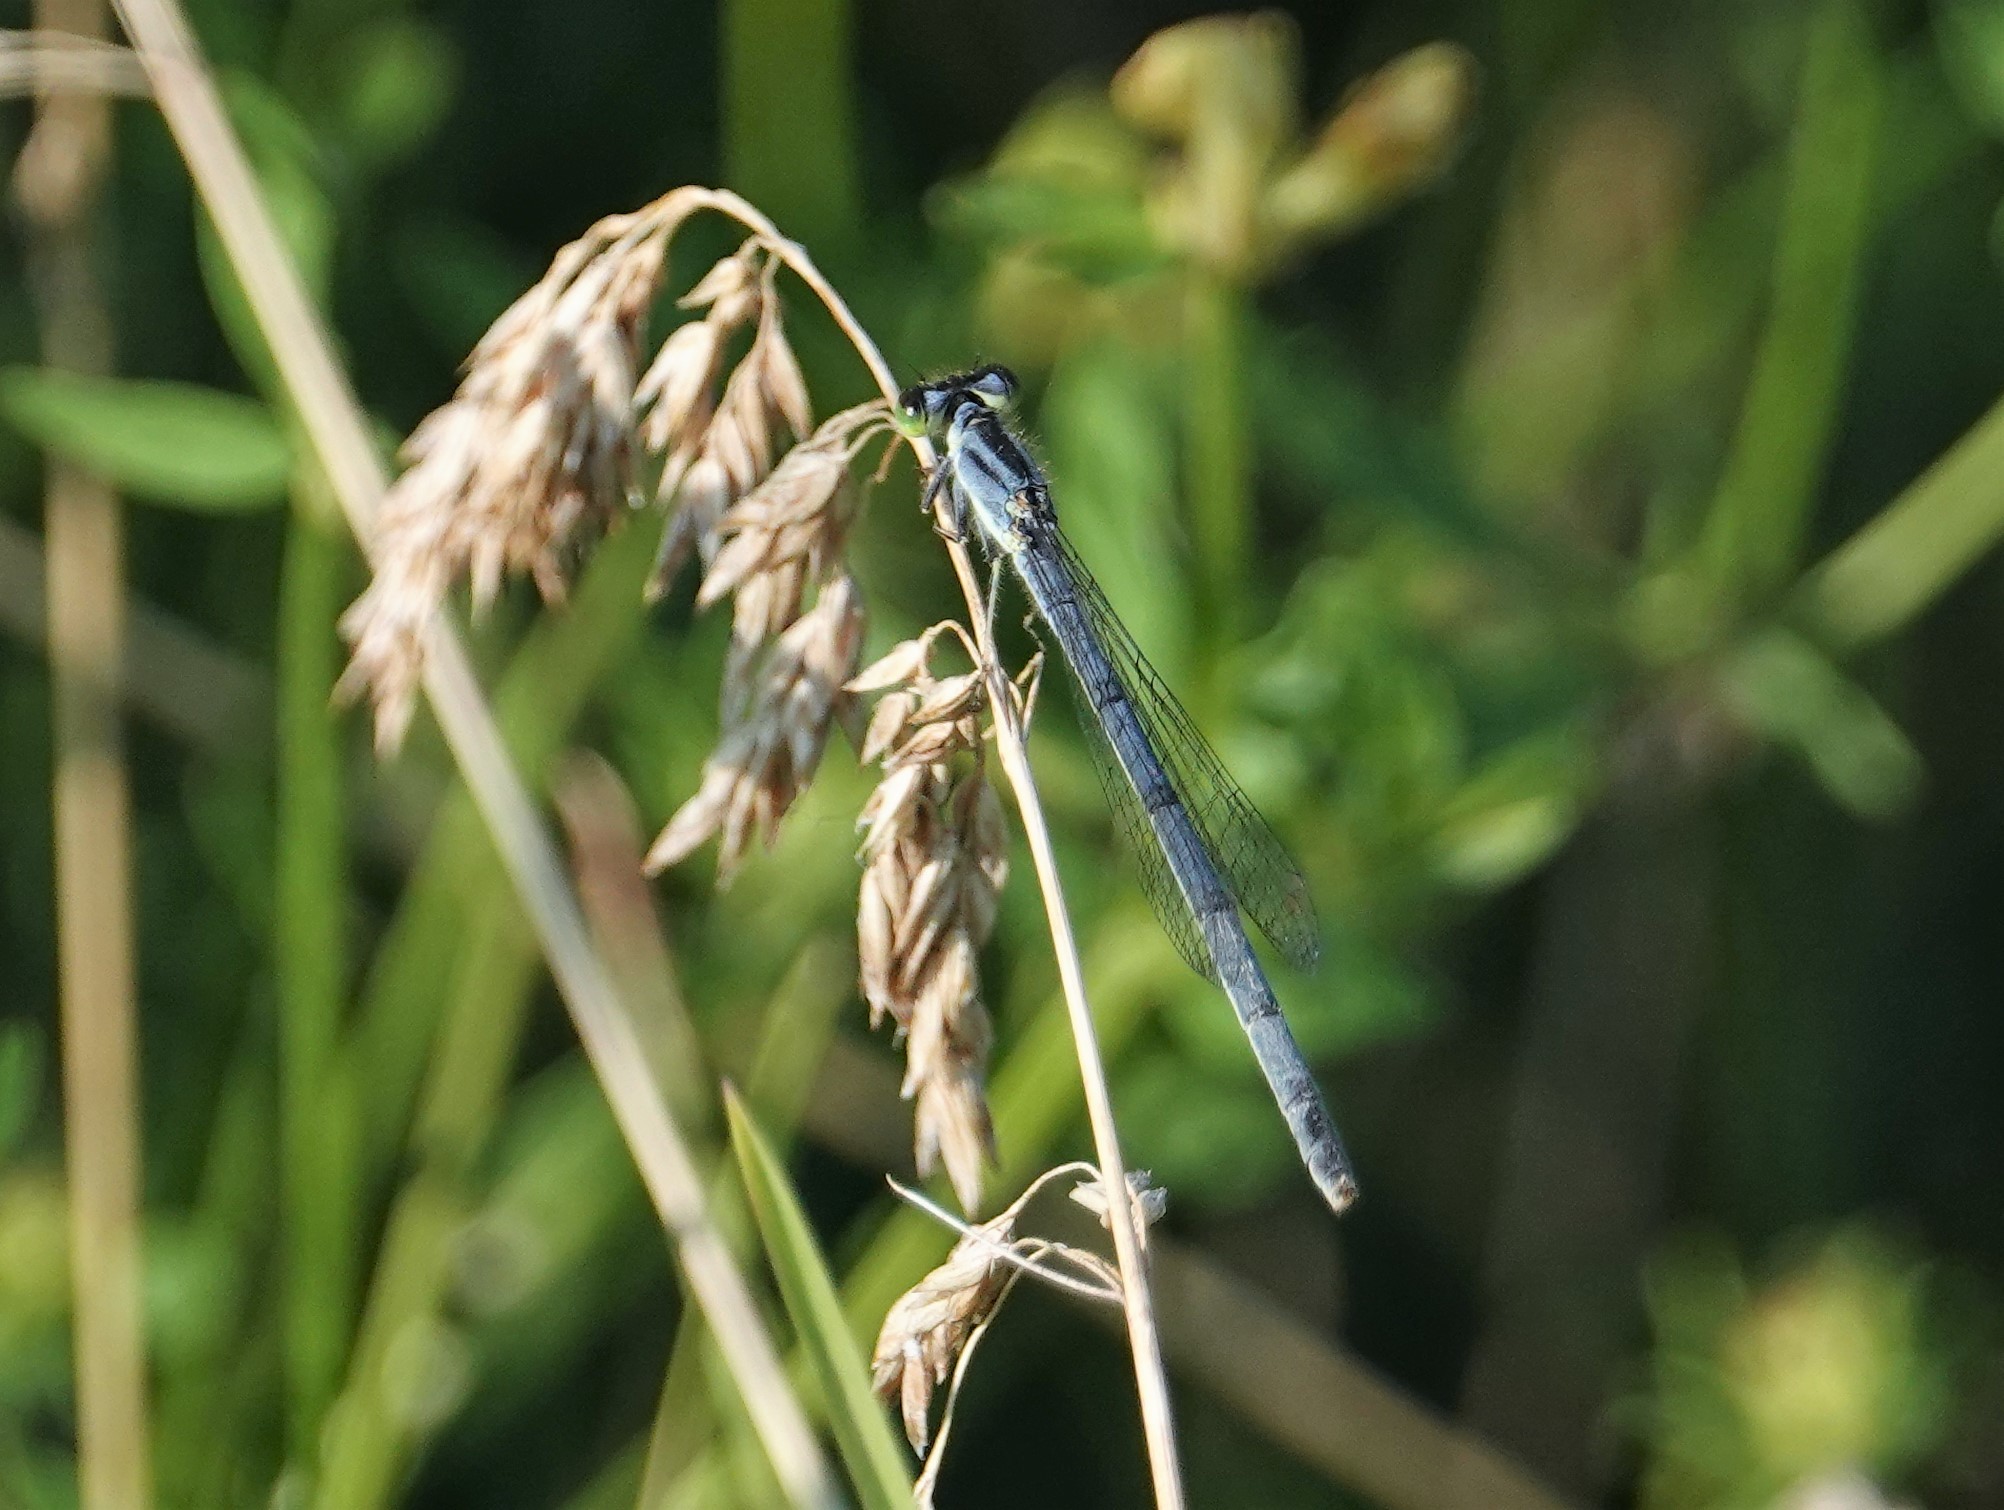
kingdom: Animalia
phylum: Arthropoda
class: Insecta
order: Odonata
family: Coenagrionidae
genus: Ischnura
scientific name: Ischnura verticalis
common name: Eastern forktail
